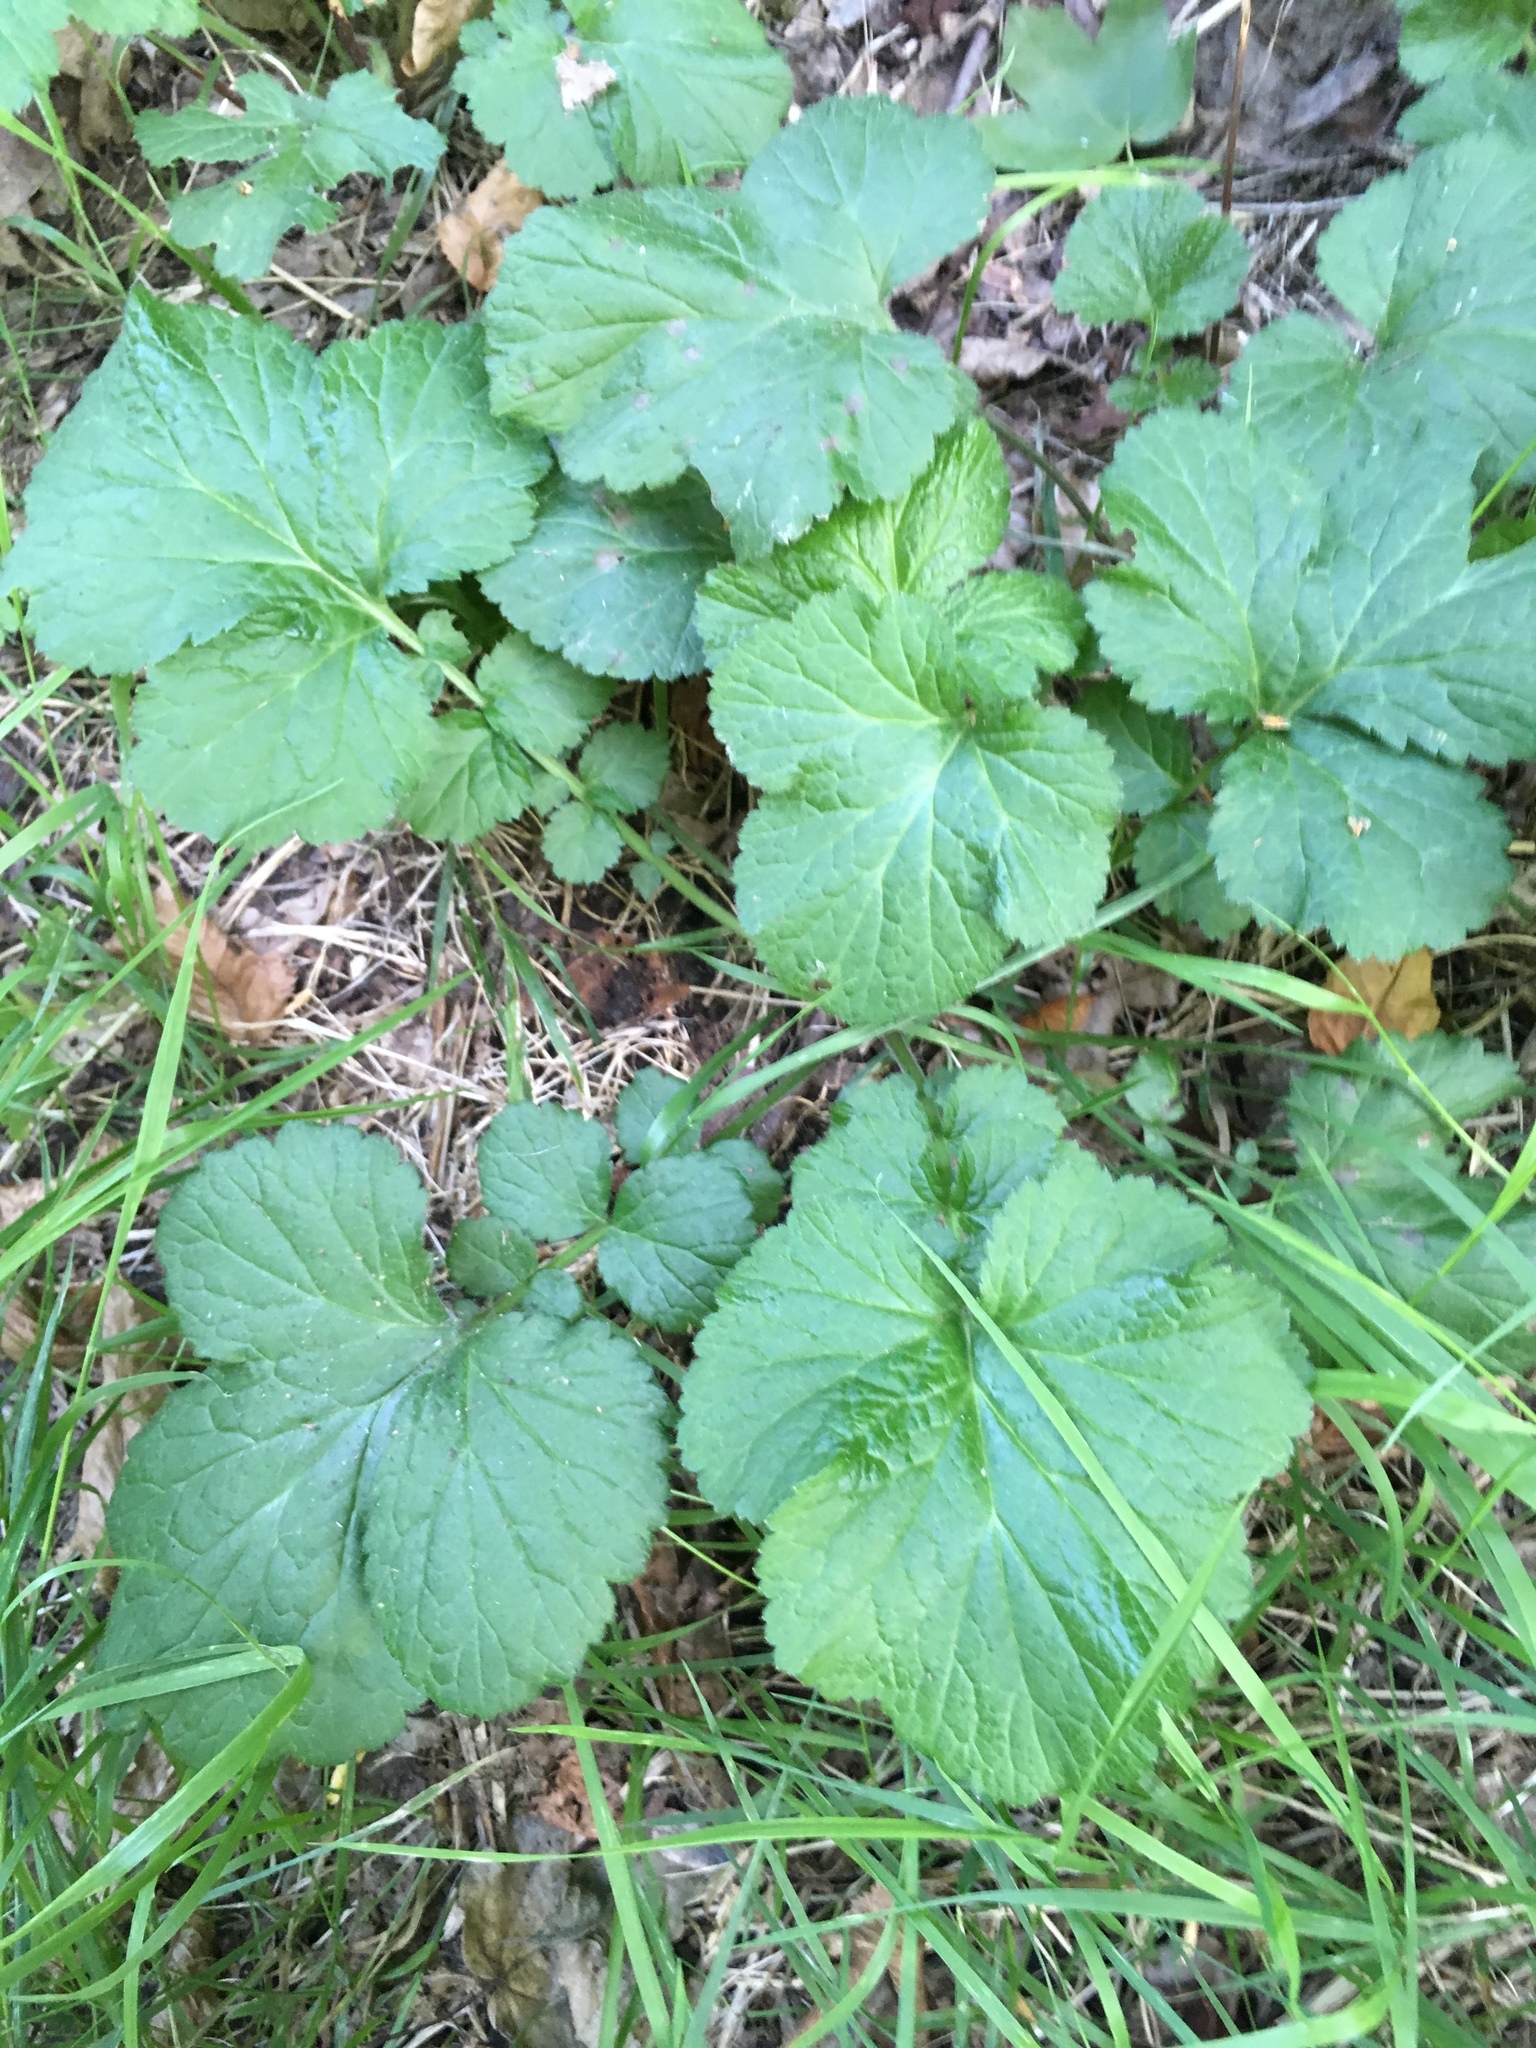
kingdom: Plantae
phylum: Tracheophyta
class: Magnoliopsida
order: Rosales
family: Rosaceae
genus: Geum
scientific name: Geum urbanum
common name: Wood avens
